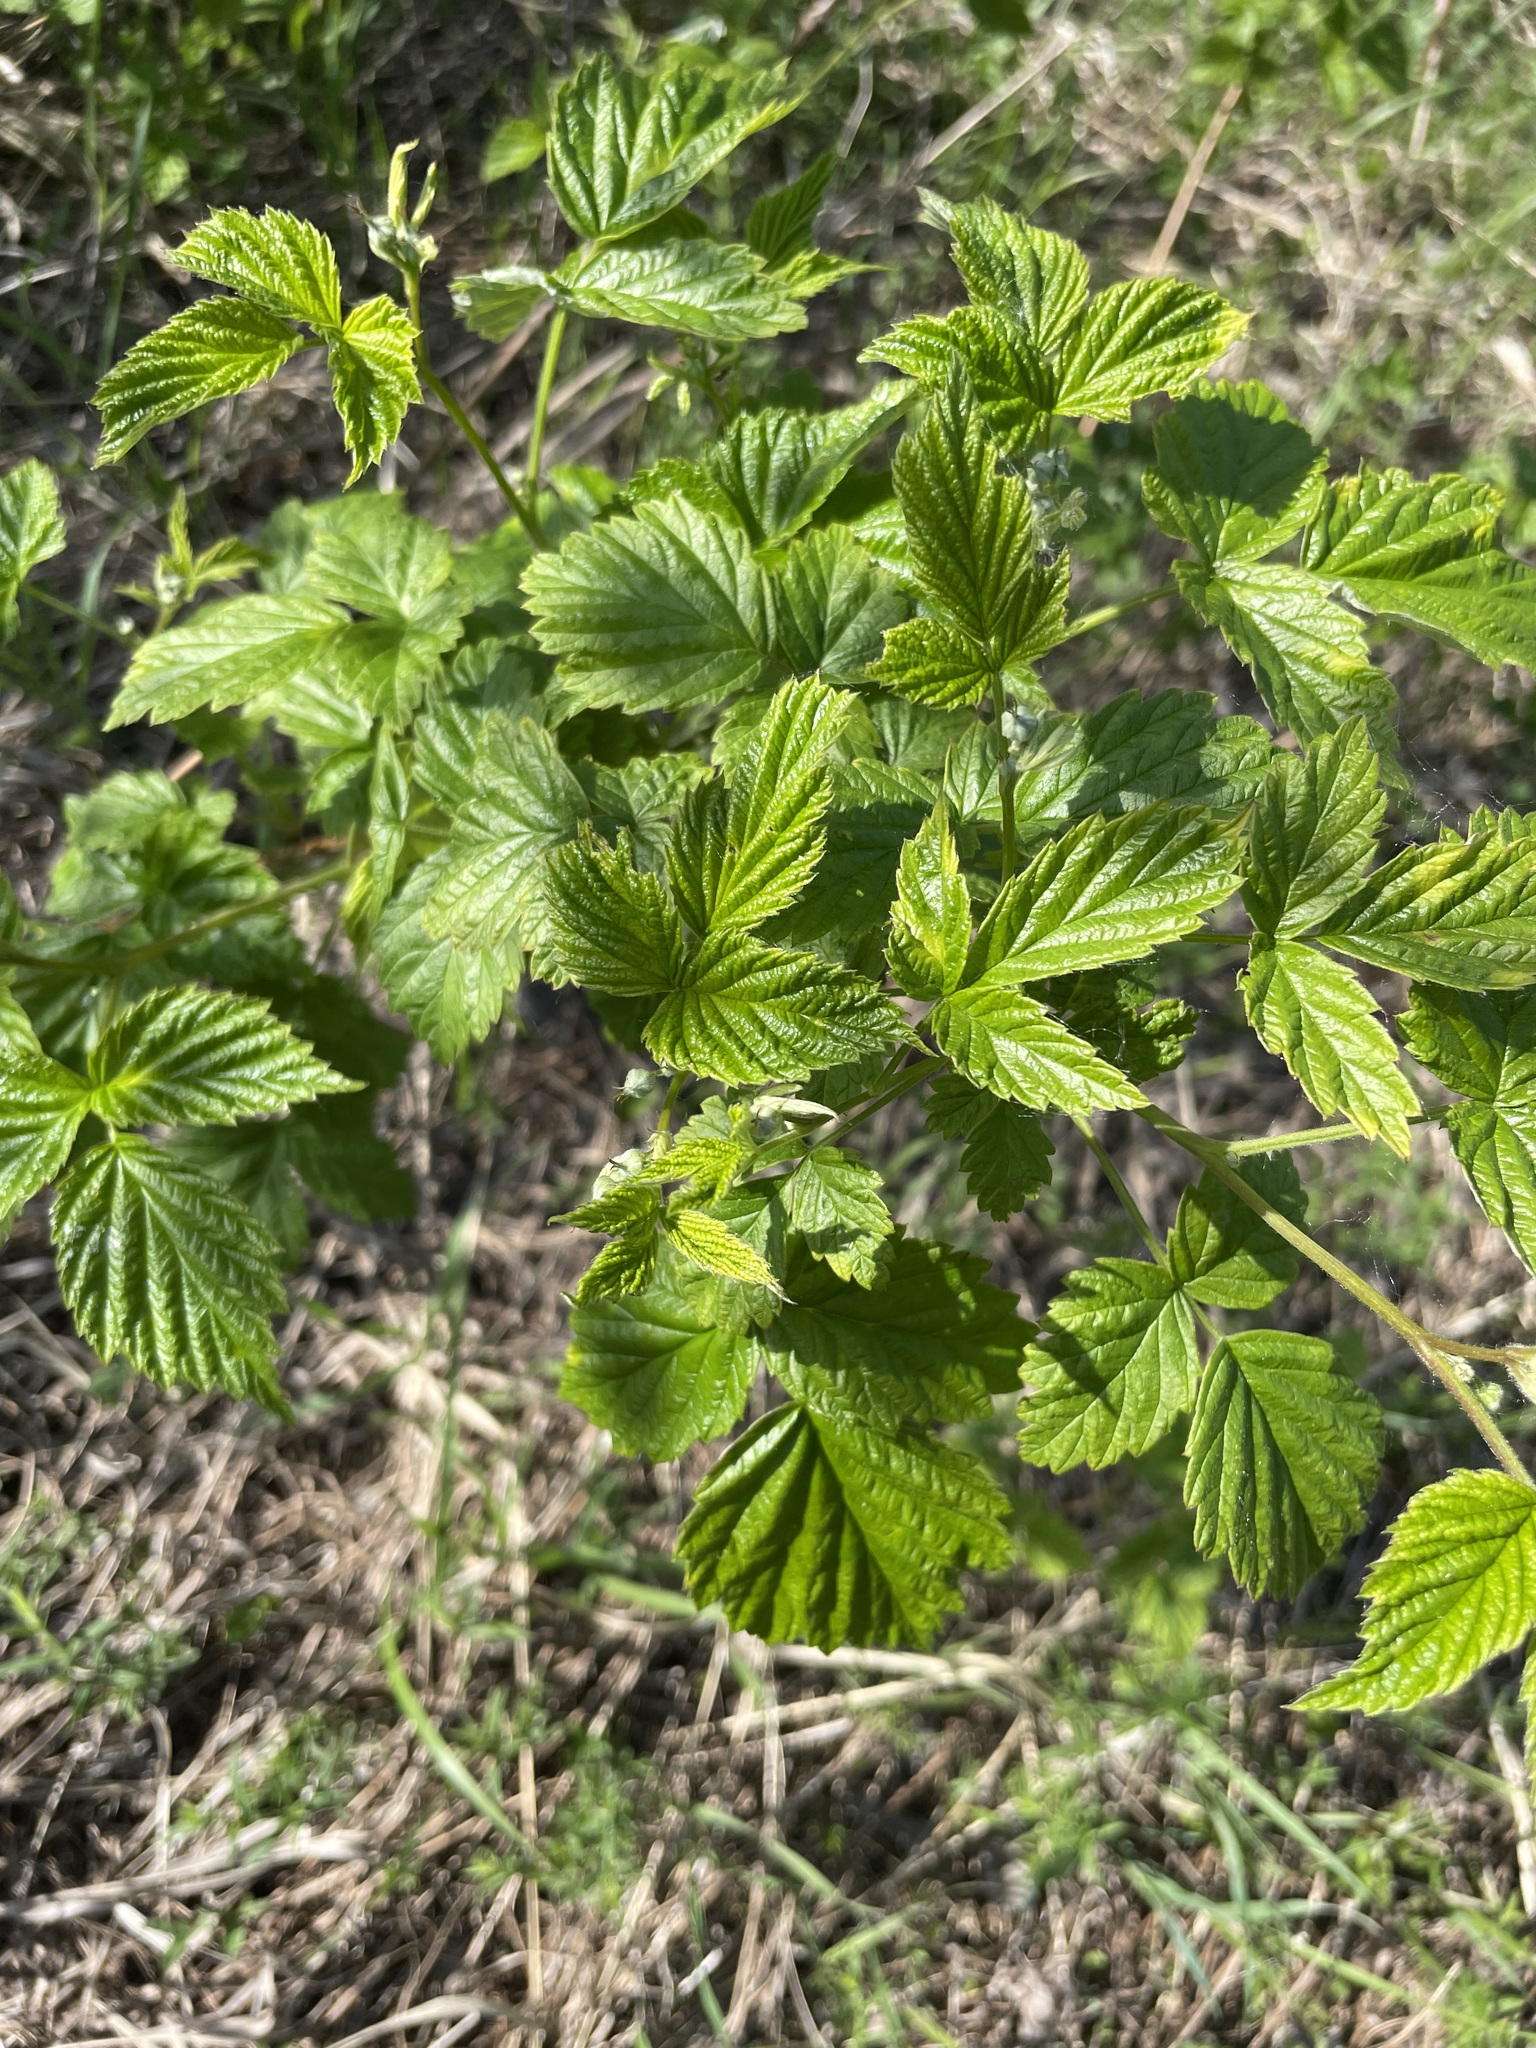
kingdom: Plantae
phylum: Tracheophyta
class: Magnoliopsida
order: Rosales
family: Rosaceae
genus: Rubus
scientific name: Rubus idaeus
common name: Raspberry
